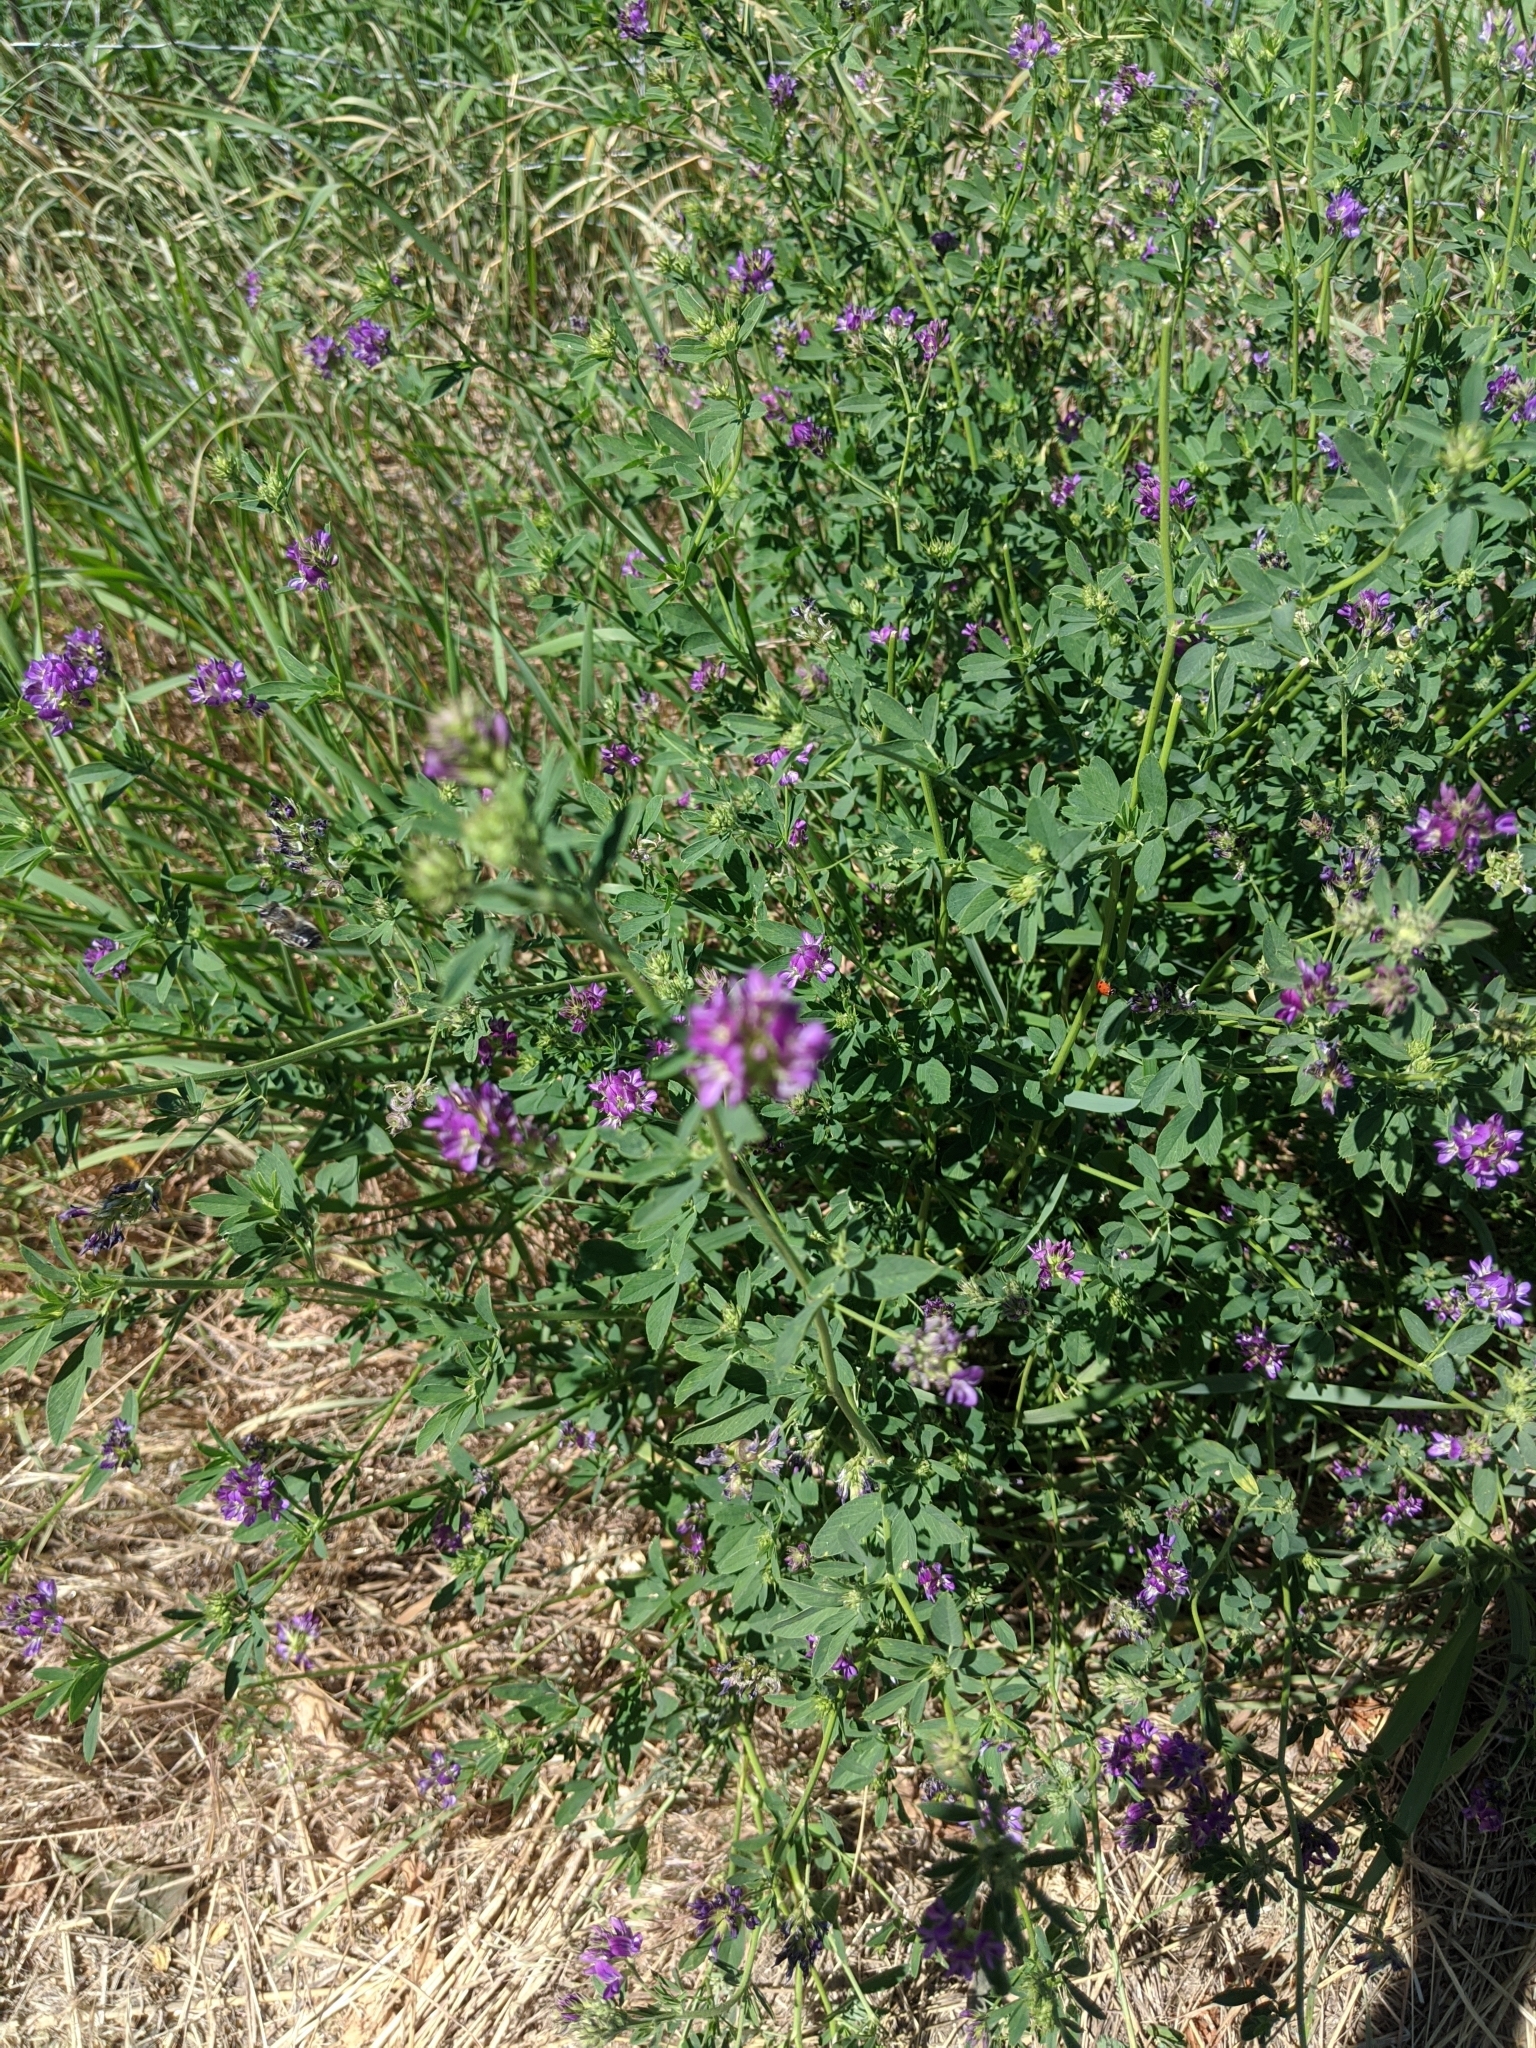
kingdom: Plantae
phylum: Tracheophyta
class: Magnoliopsida
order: Fabales
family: Fabaceae
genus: Medicago
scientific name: Medicago sativa
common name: Alfalfa
